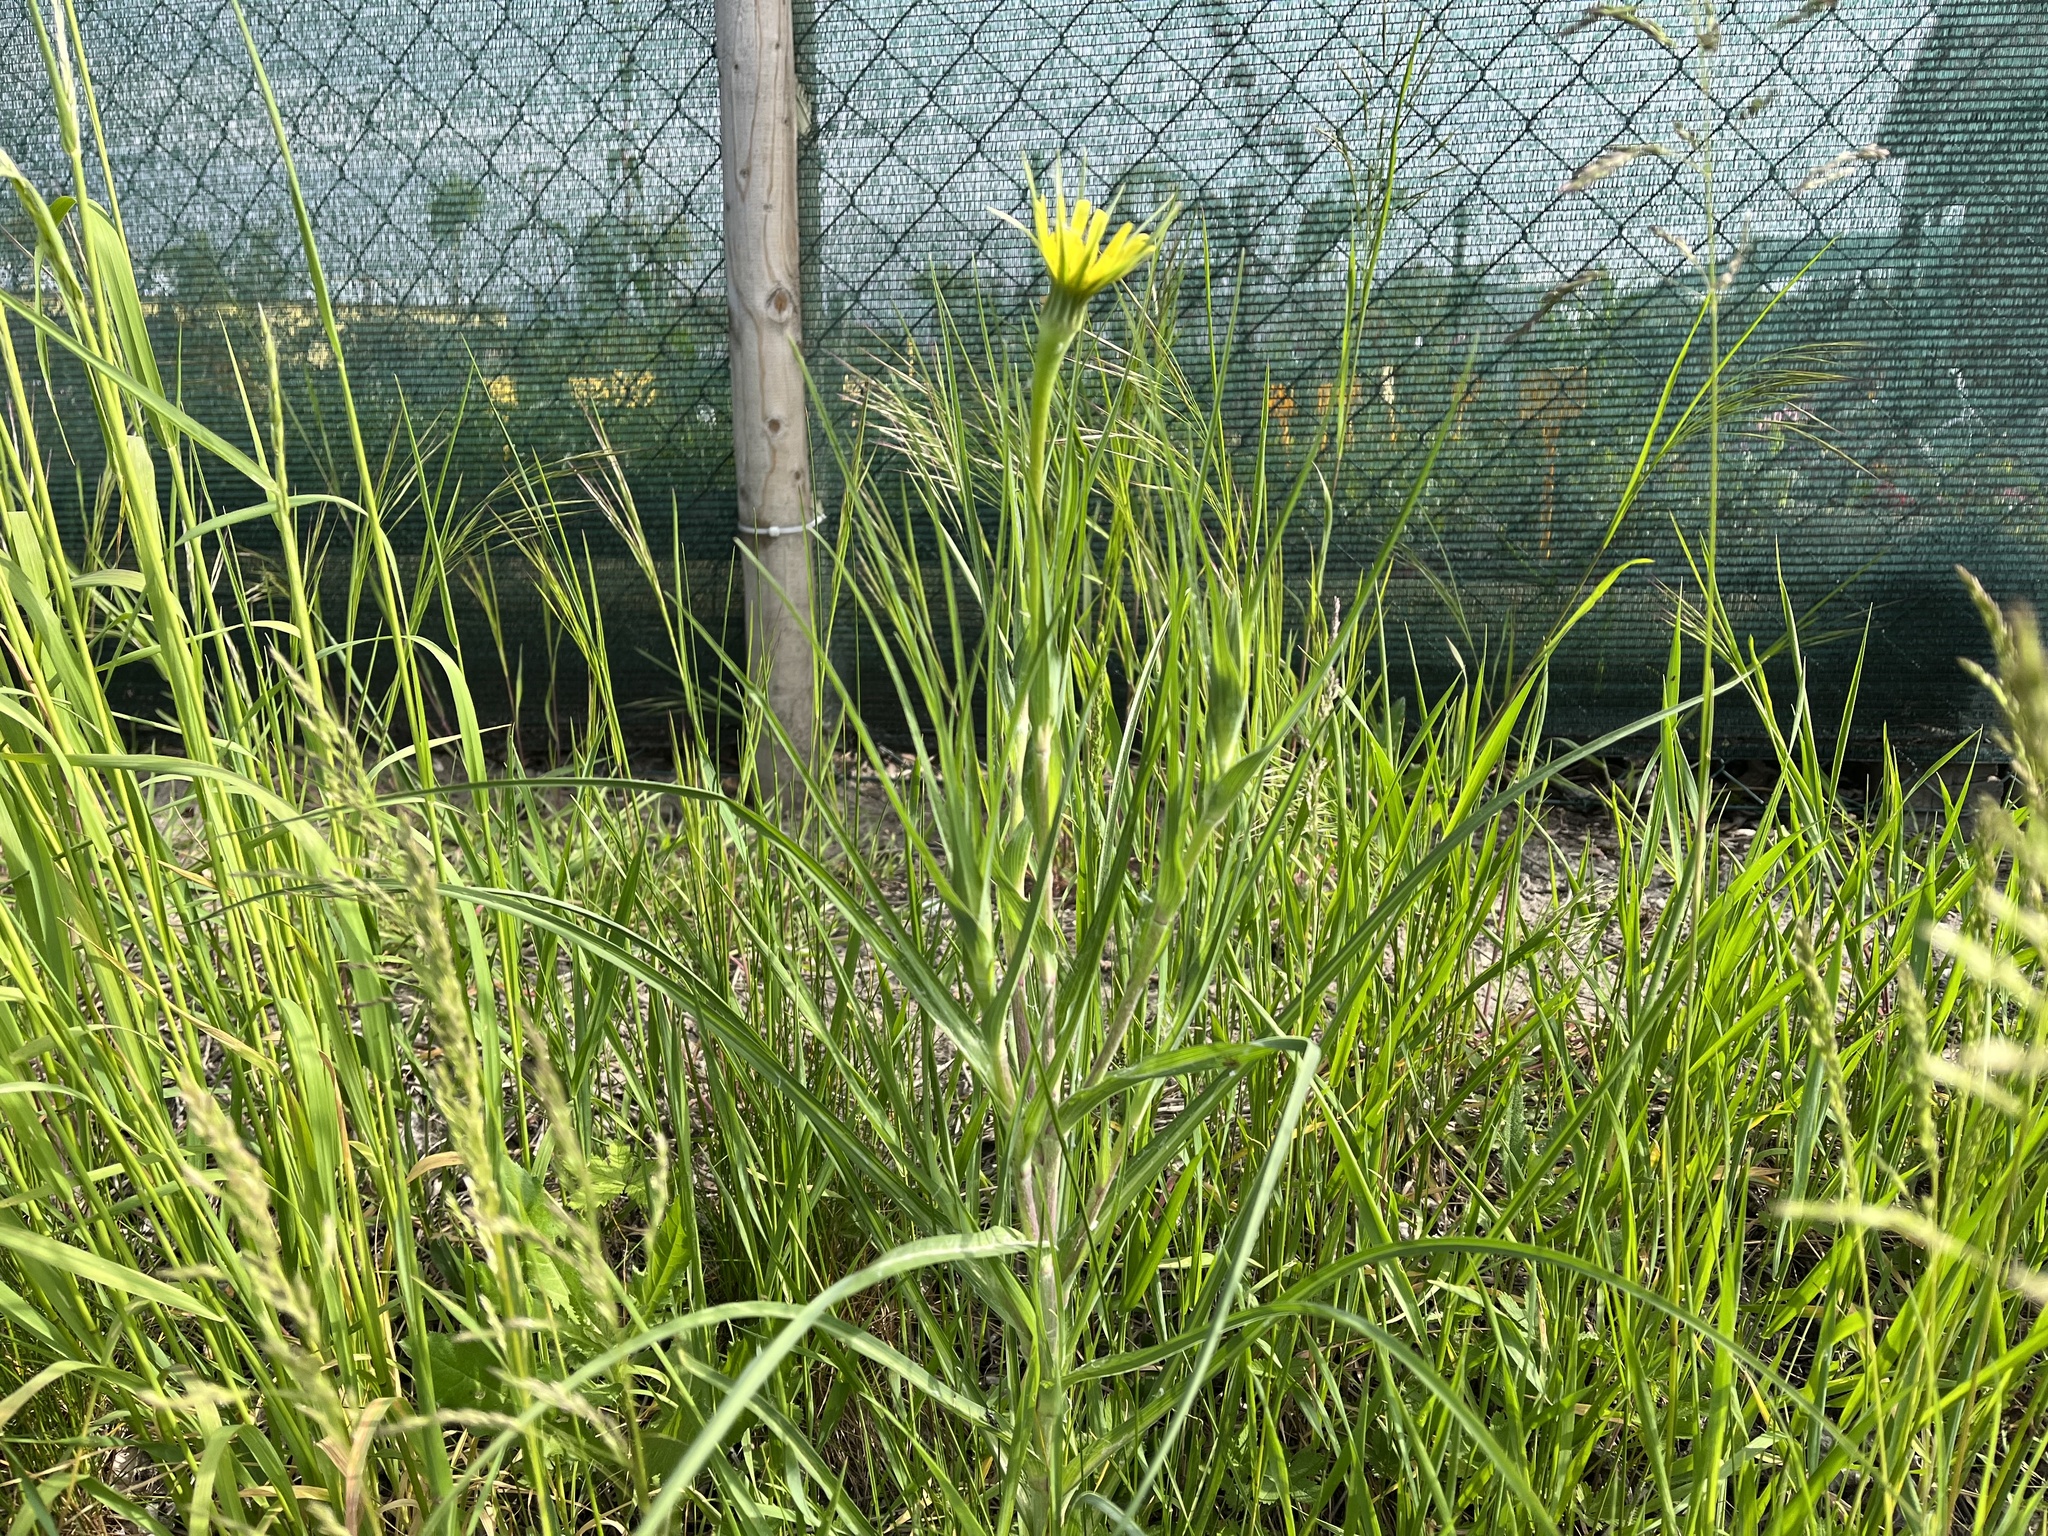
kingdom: Plantae
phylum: Tracheophyta
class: Magnoliopsida
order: Asterales
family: Asteraceae
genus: Tragopogon
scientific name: Tragopogon dubius
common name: Yellow salsify
